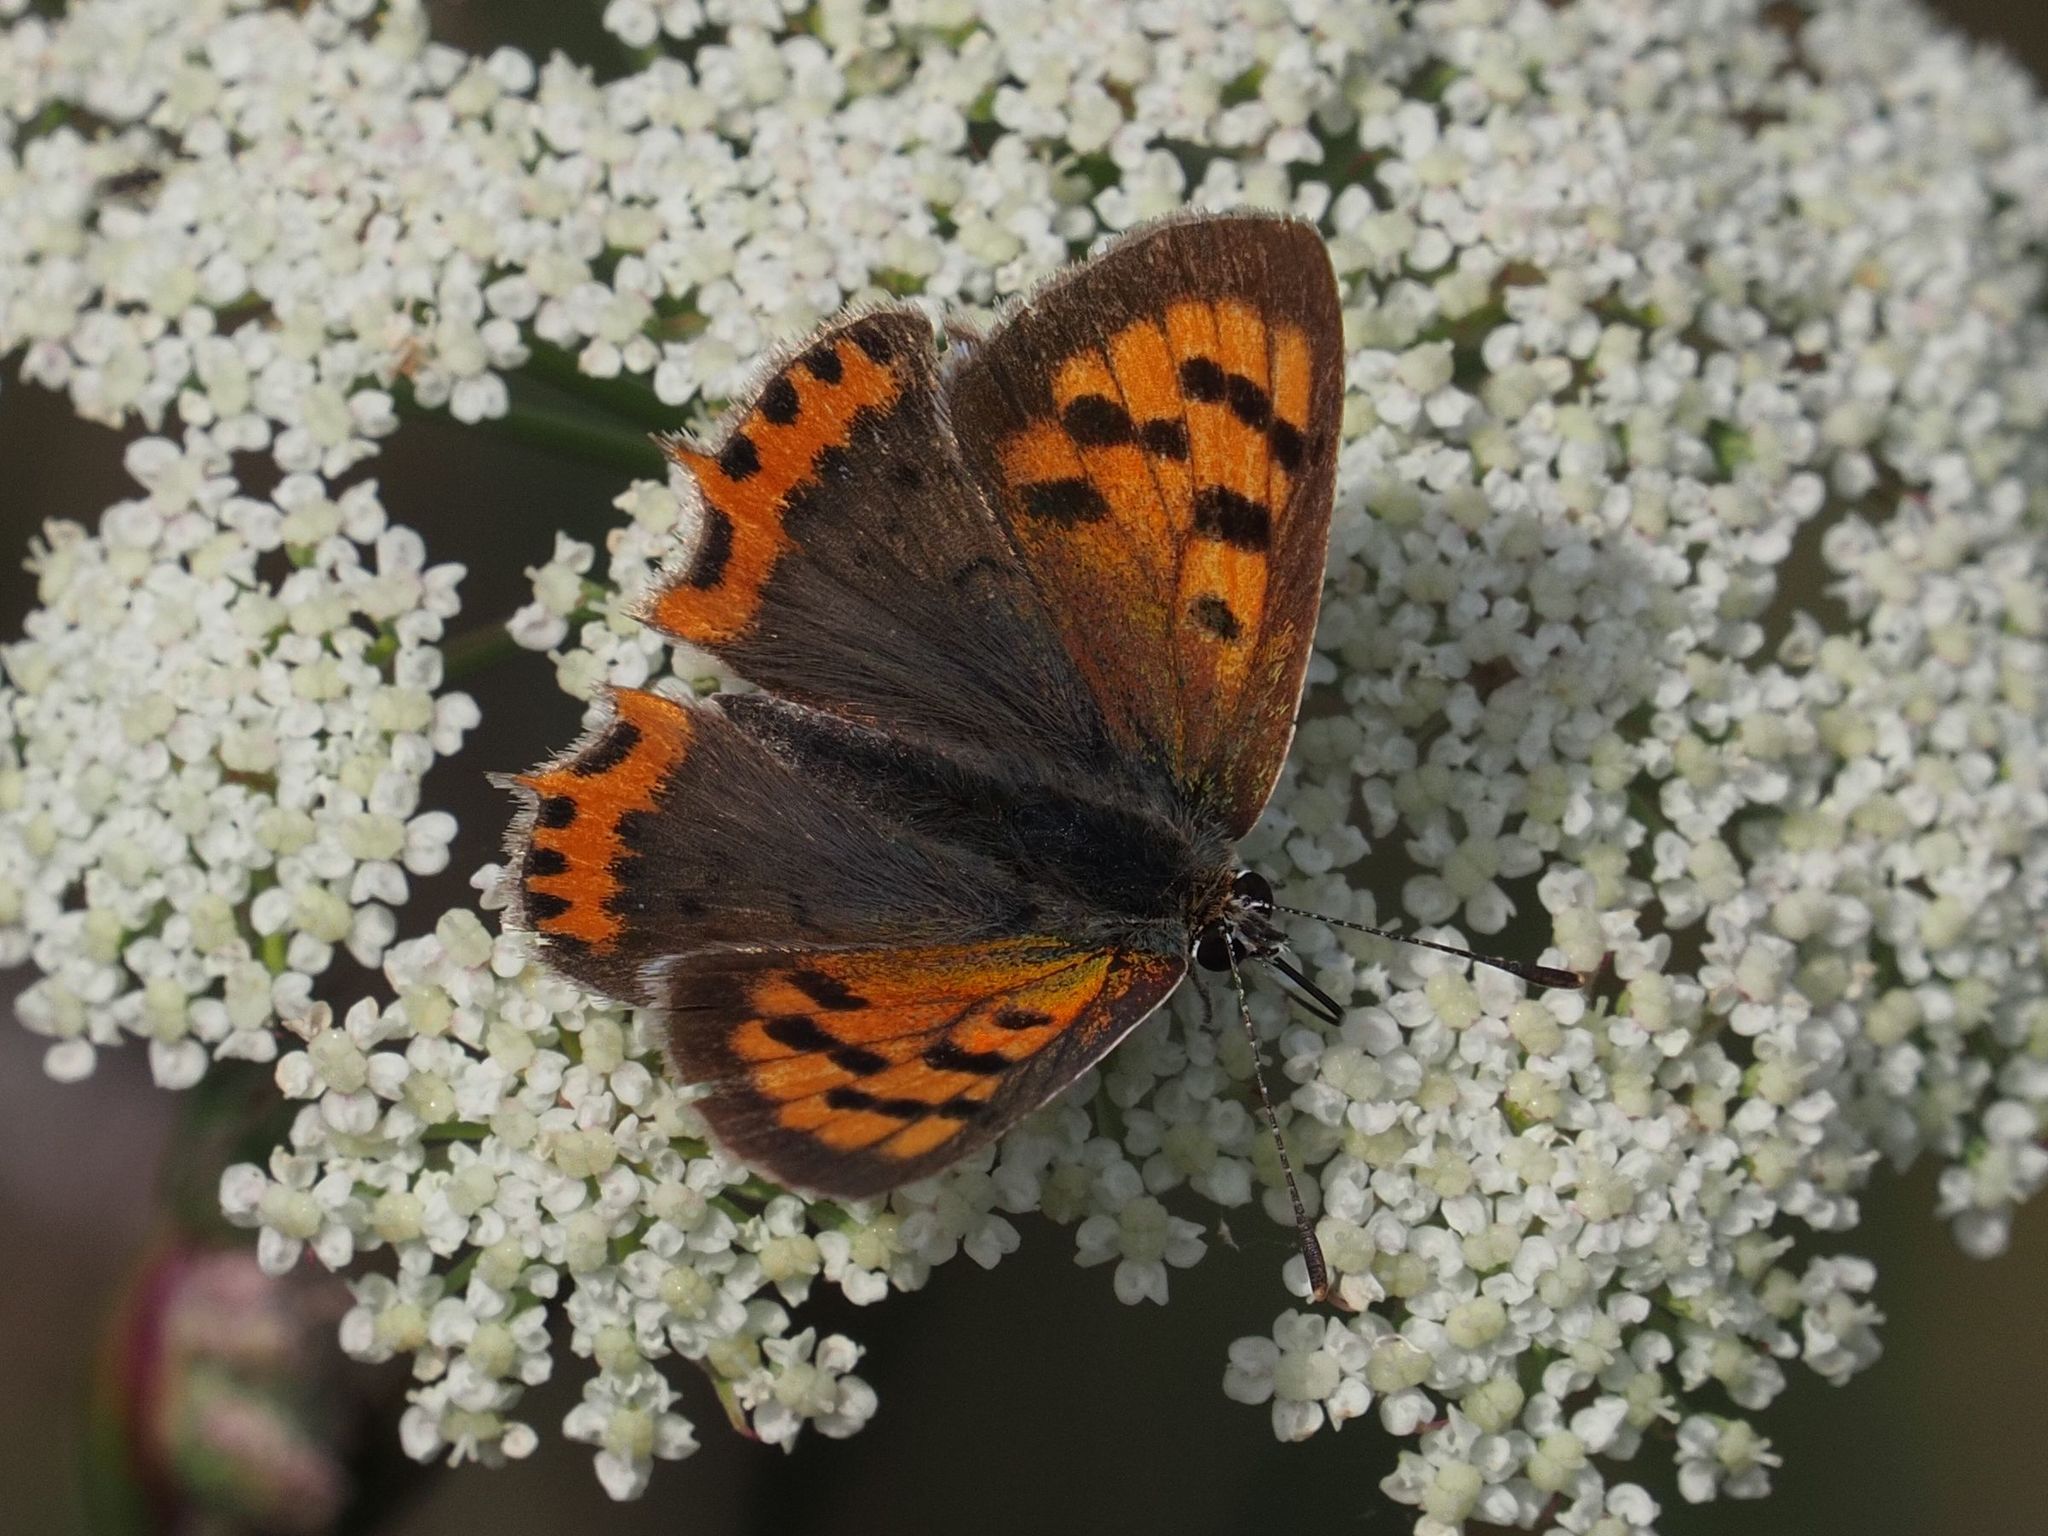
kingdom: Animalia
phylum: Arthropoda
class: Insecta
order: Lepidoptera
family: Lycaenidae
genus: Lycaena
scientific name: Lycaena phlaeas
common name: Small copper
